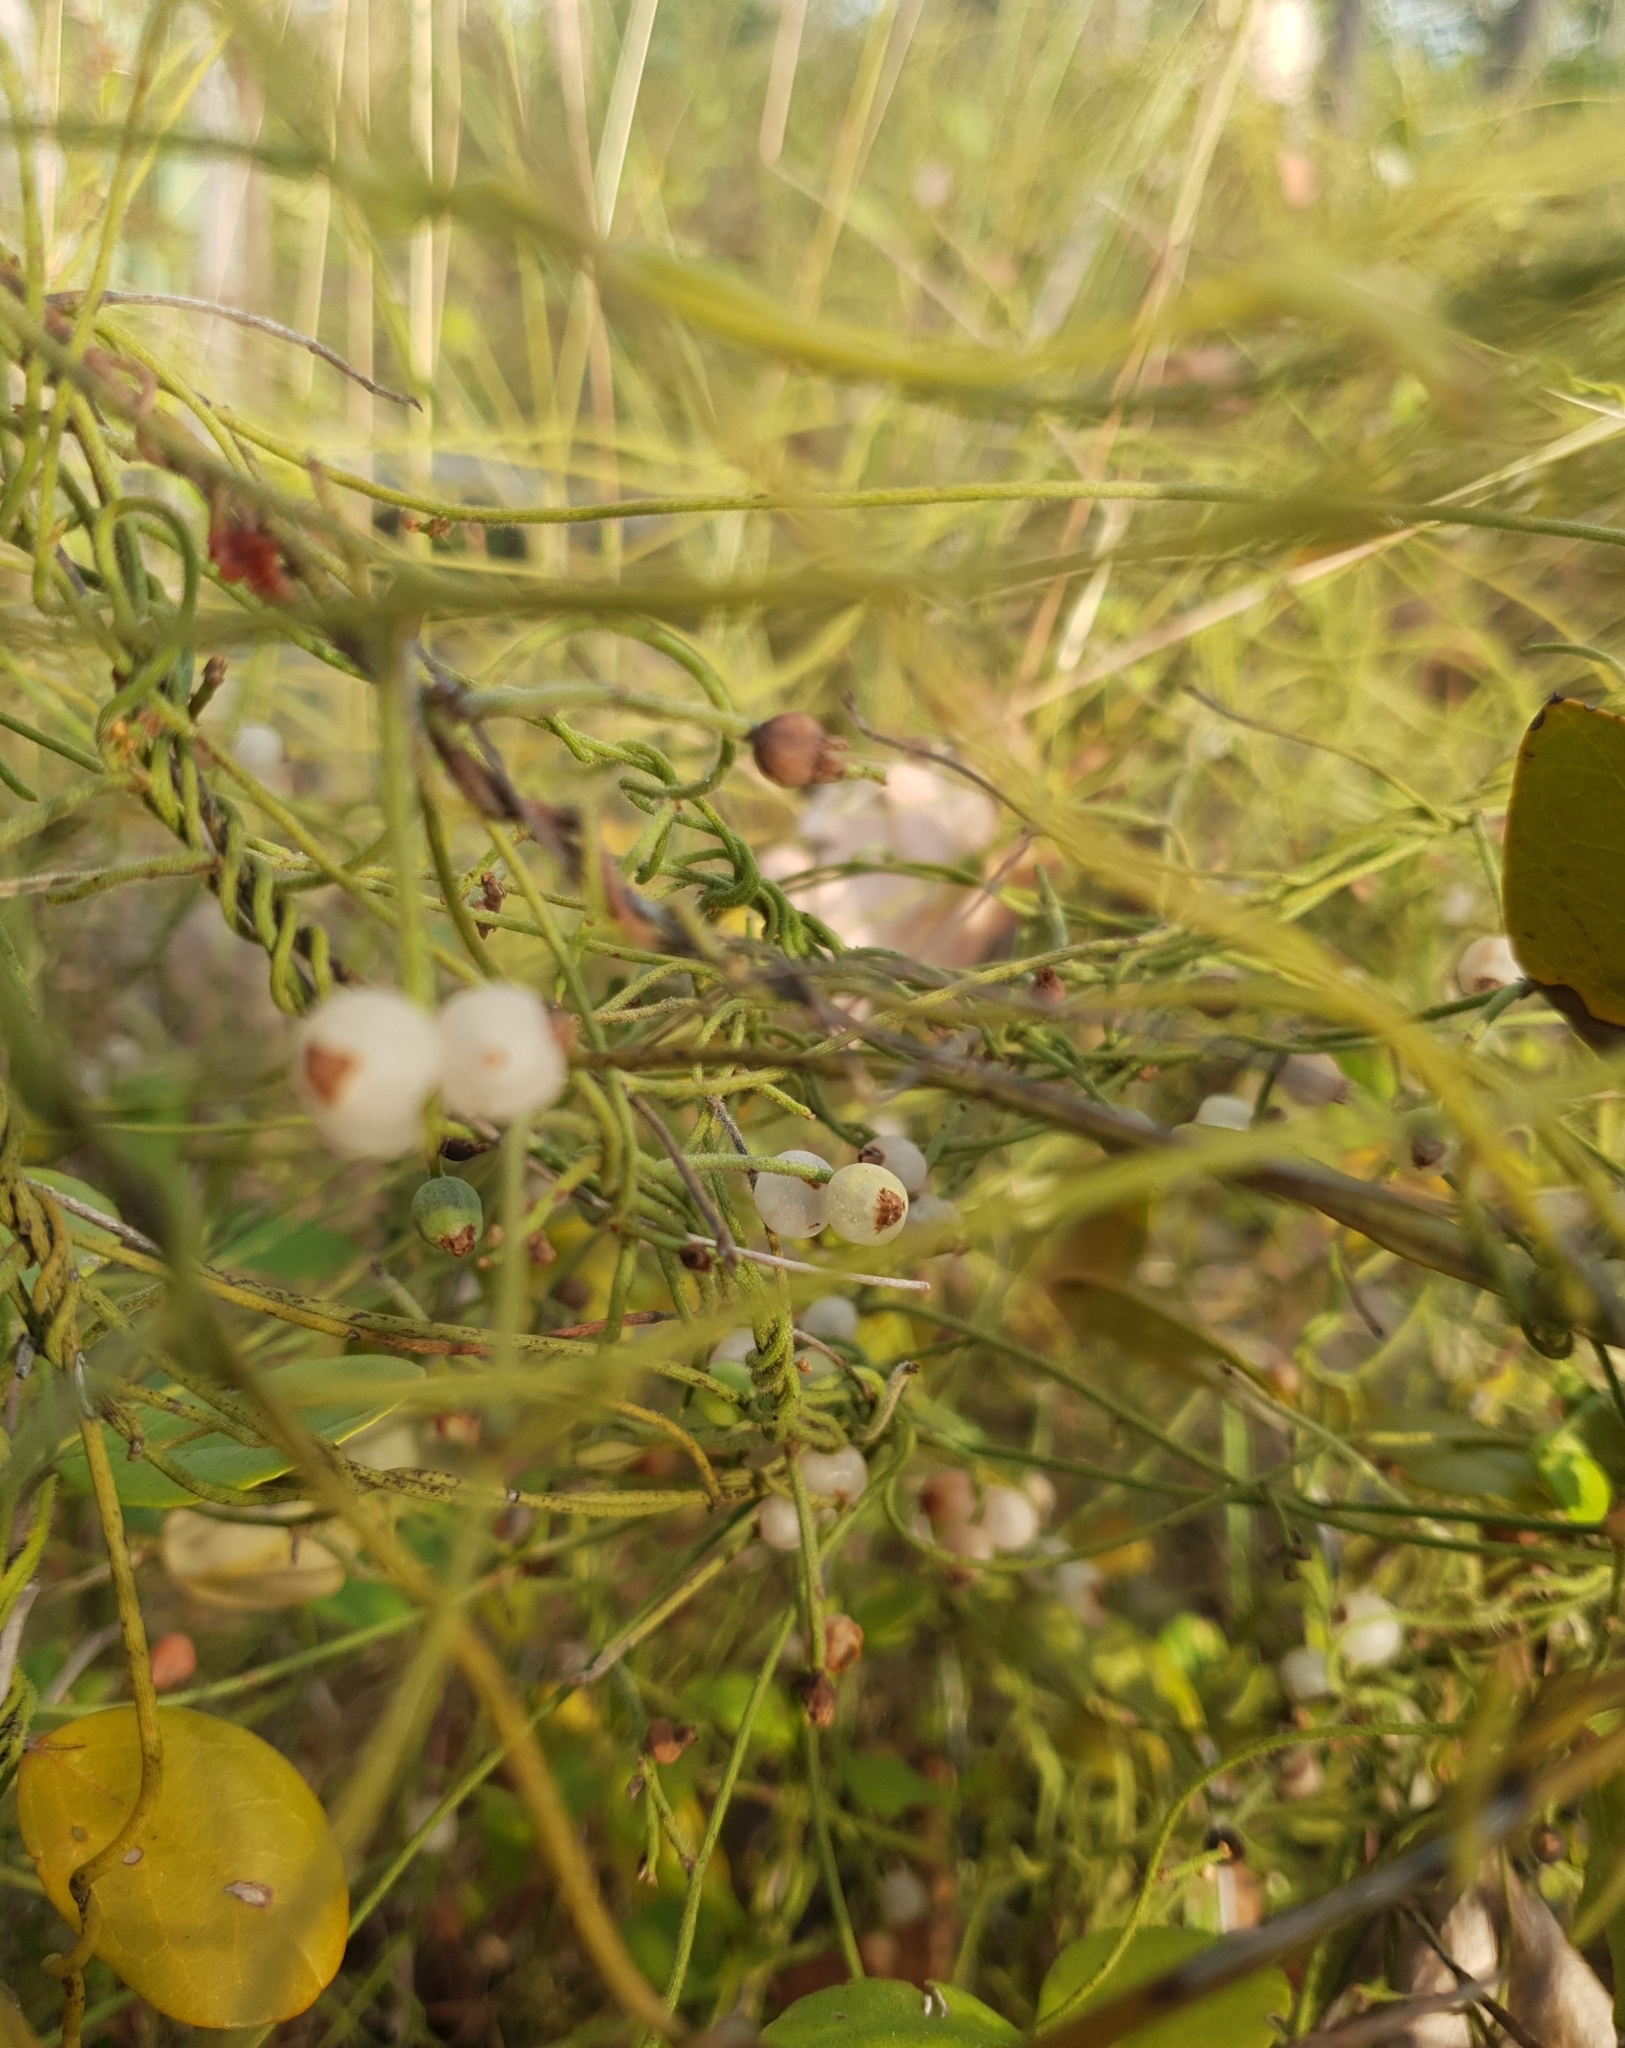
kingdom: Plantae
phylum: Tracheophyta
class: Magnoliopsida
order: Laurales
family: Lauraceae
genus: Cassytha
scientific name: Cassytha filiformis
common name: Dodder-laurel
